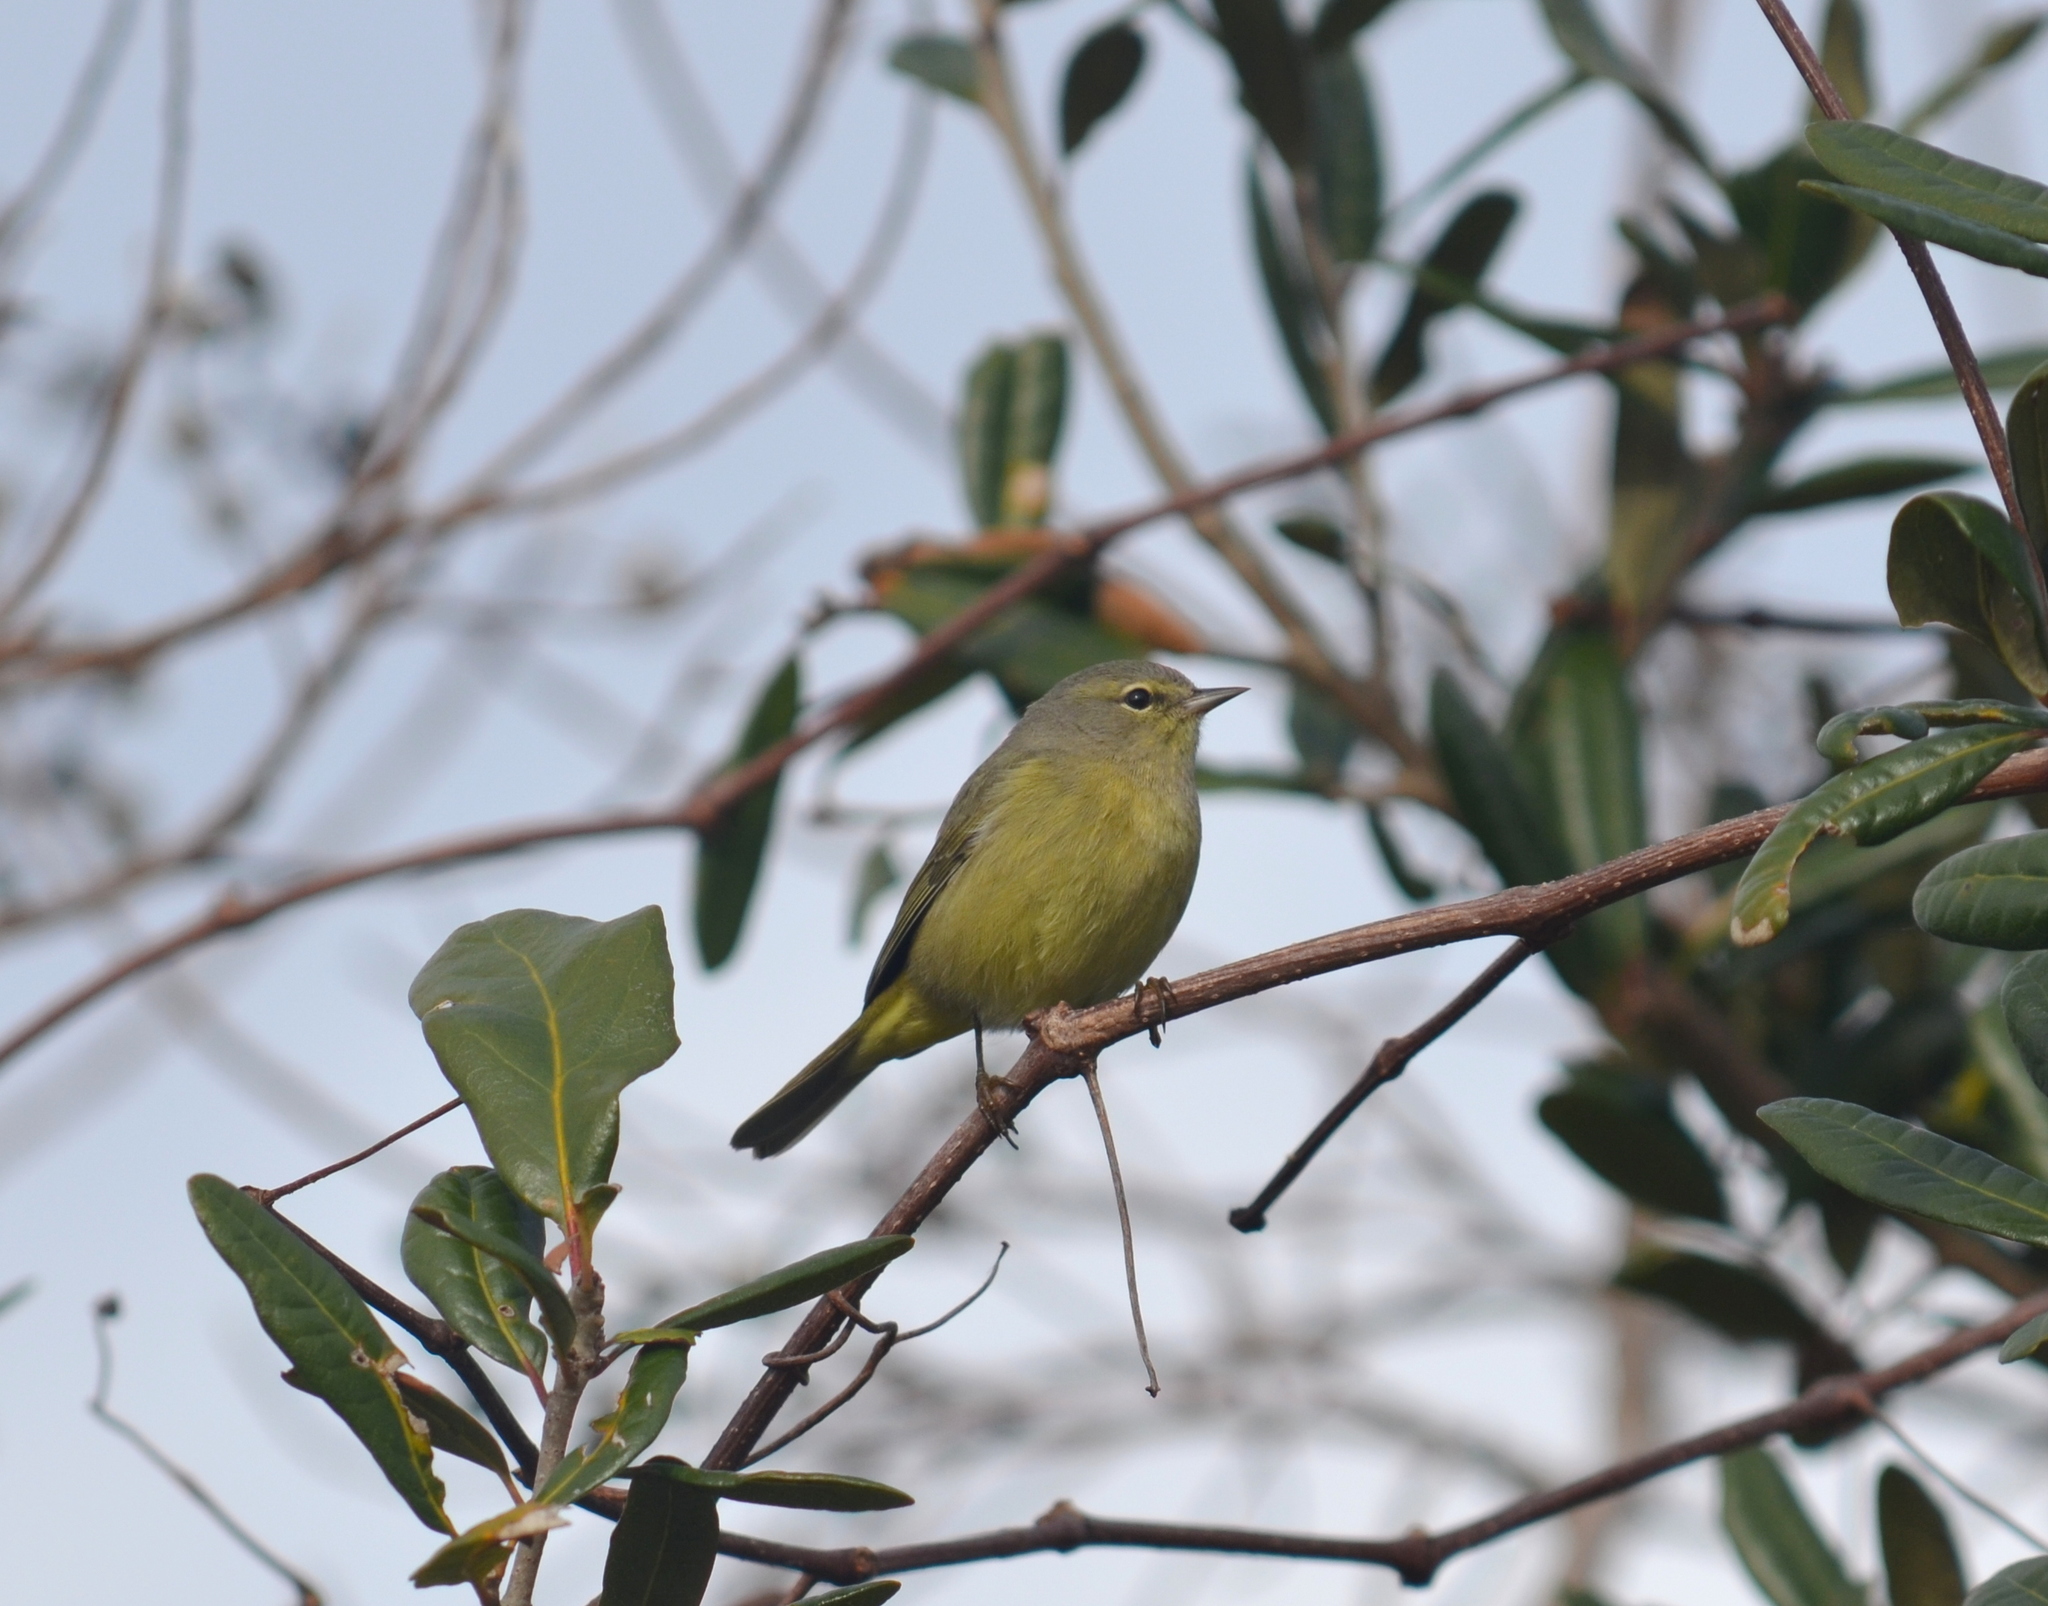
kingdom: Animalia
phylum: Chordata
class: Aves
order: Passeriformes
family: Parulidae
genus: Leiothlypis
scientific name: Leiothlypis celata
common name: Orange-crowned warbler
